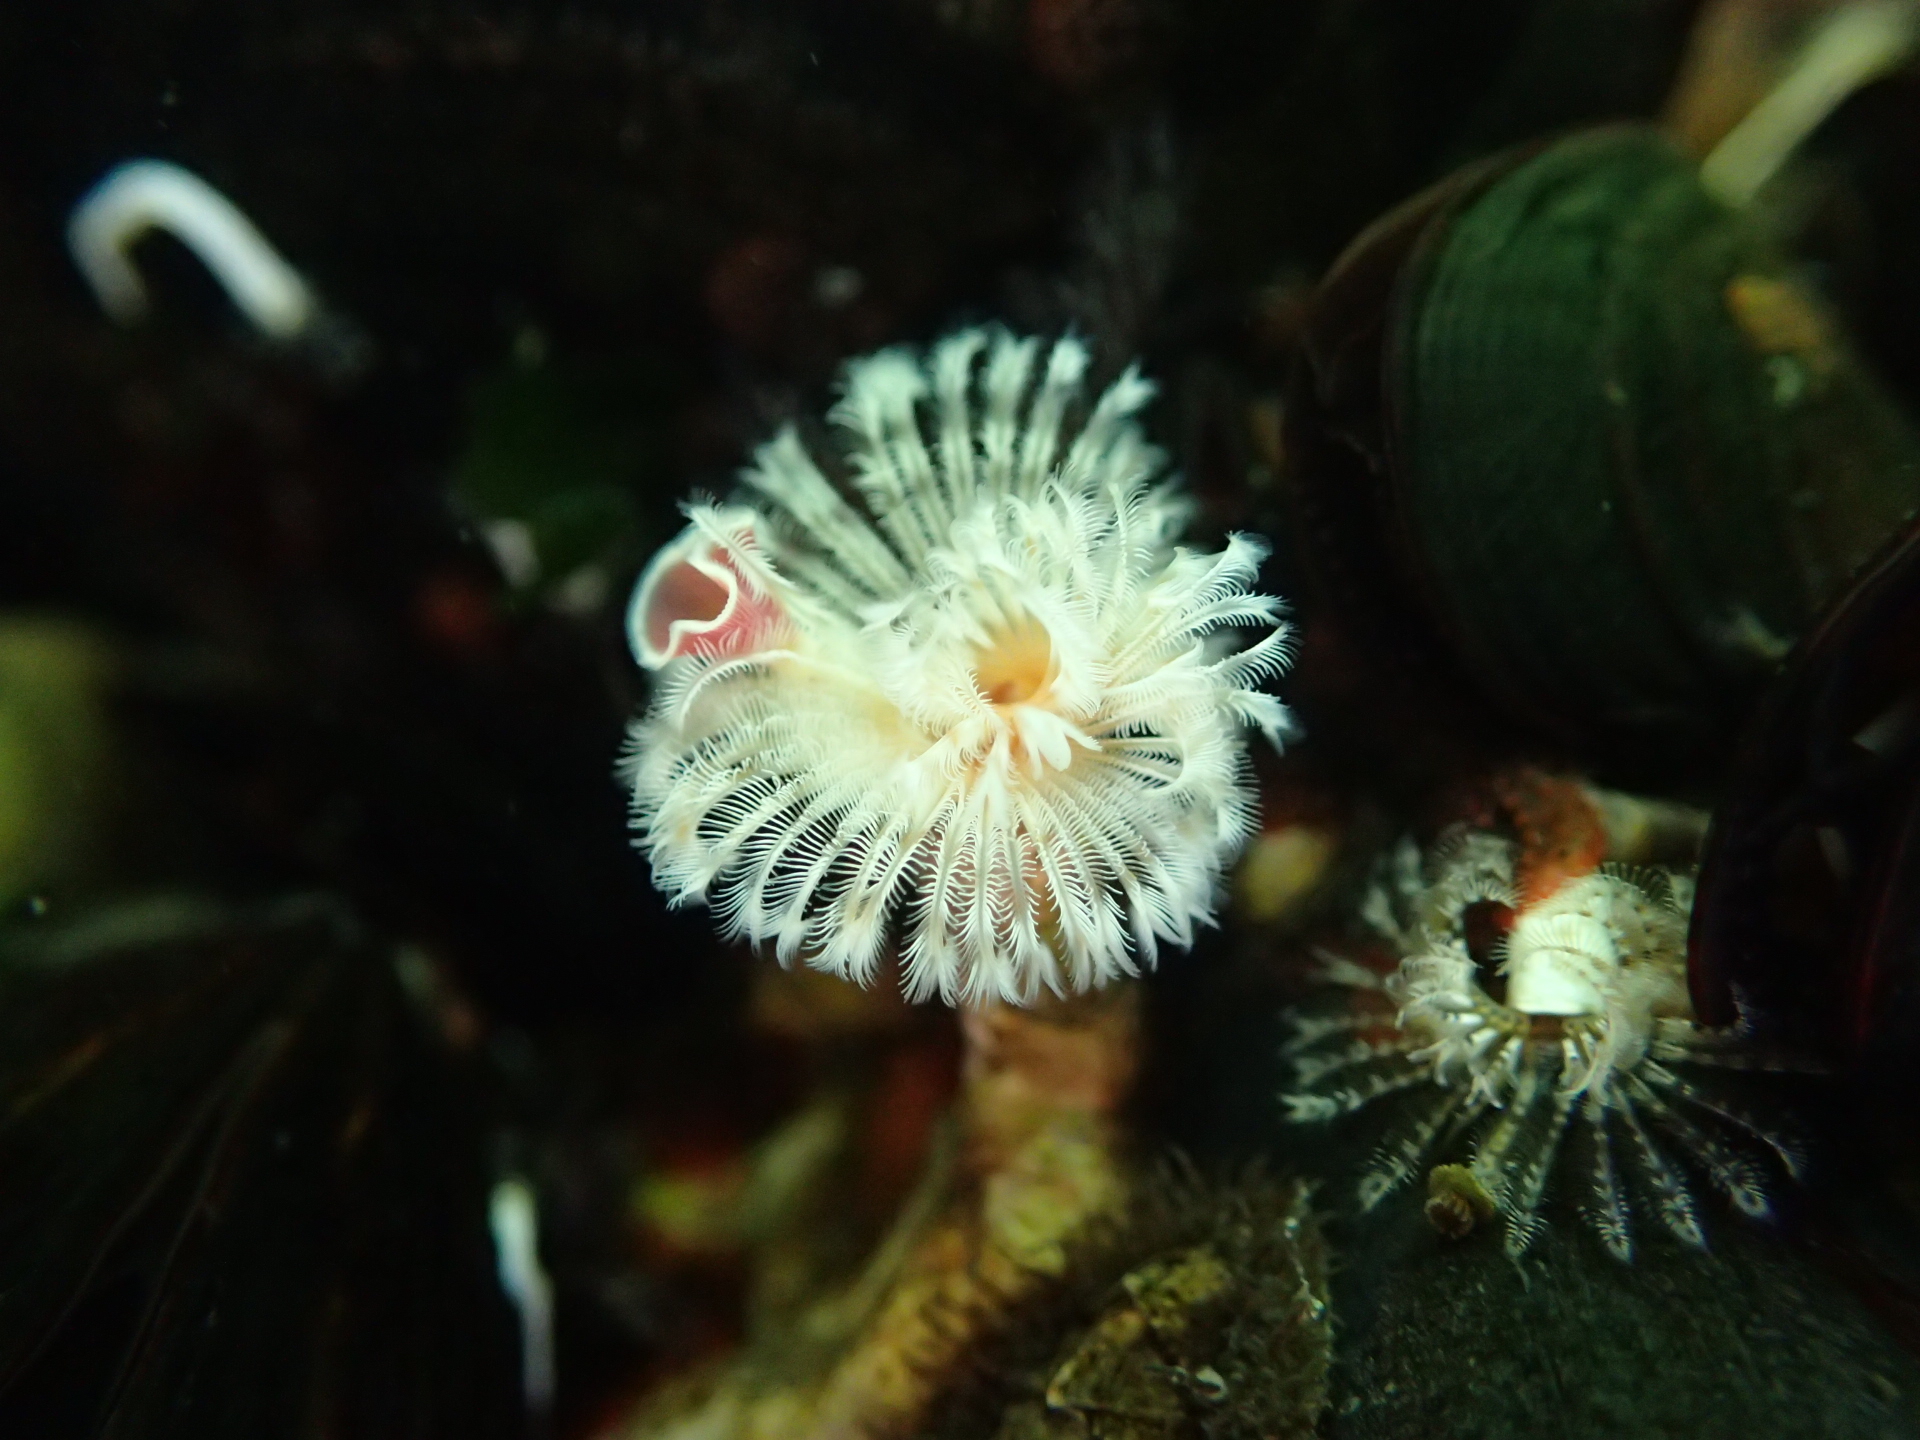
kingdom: Animalia
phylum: Annelida
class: Polychaeta
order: Sabellida
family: Serpulidae
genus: Serpula
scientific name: Serpula columbiana
